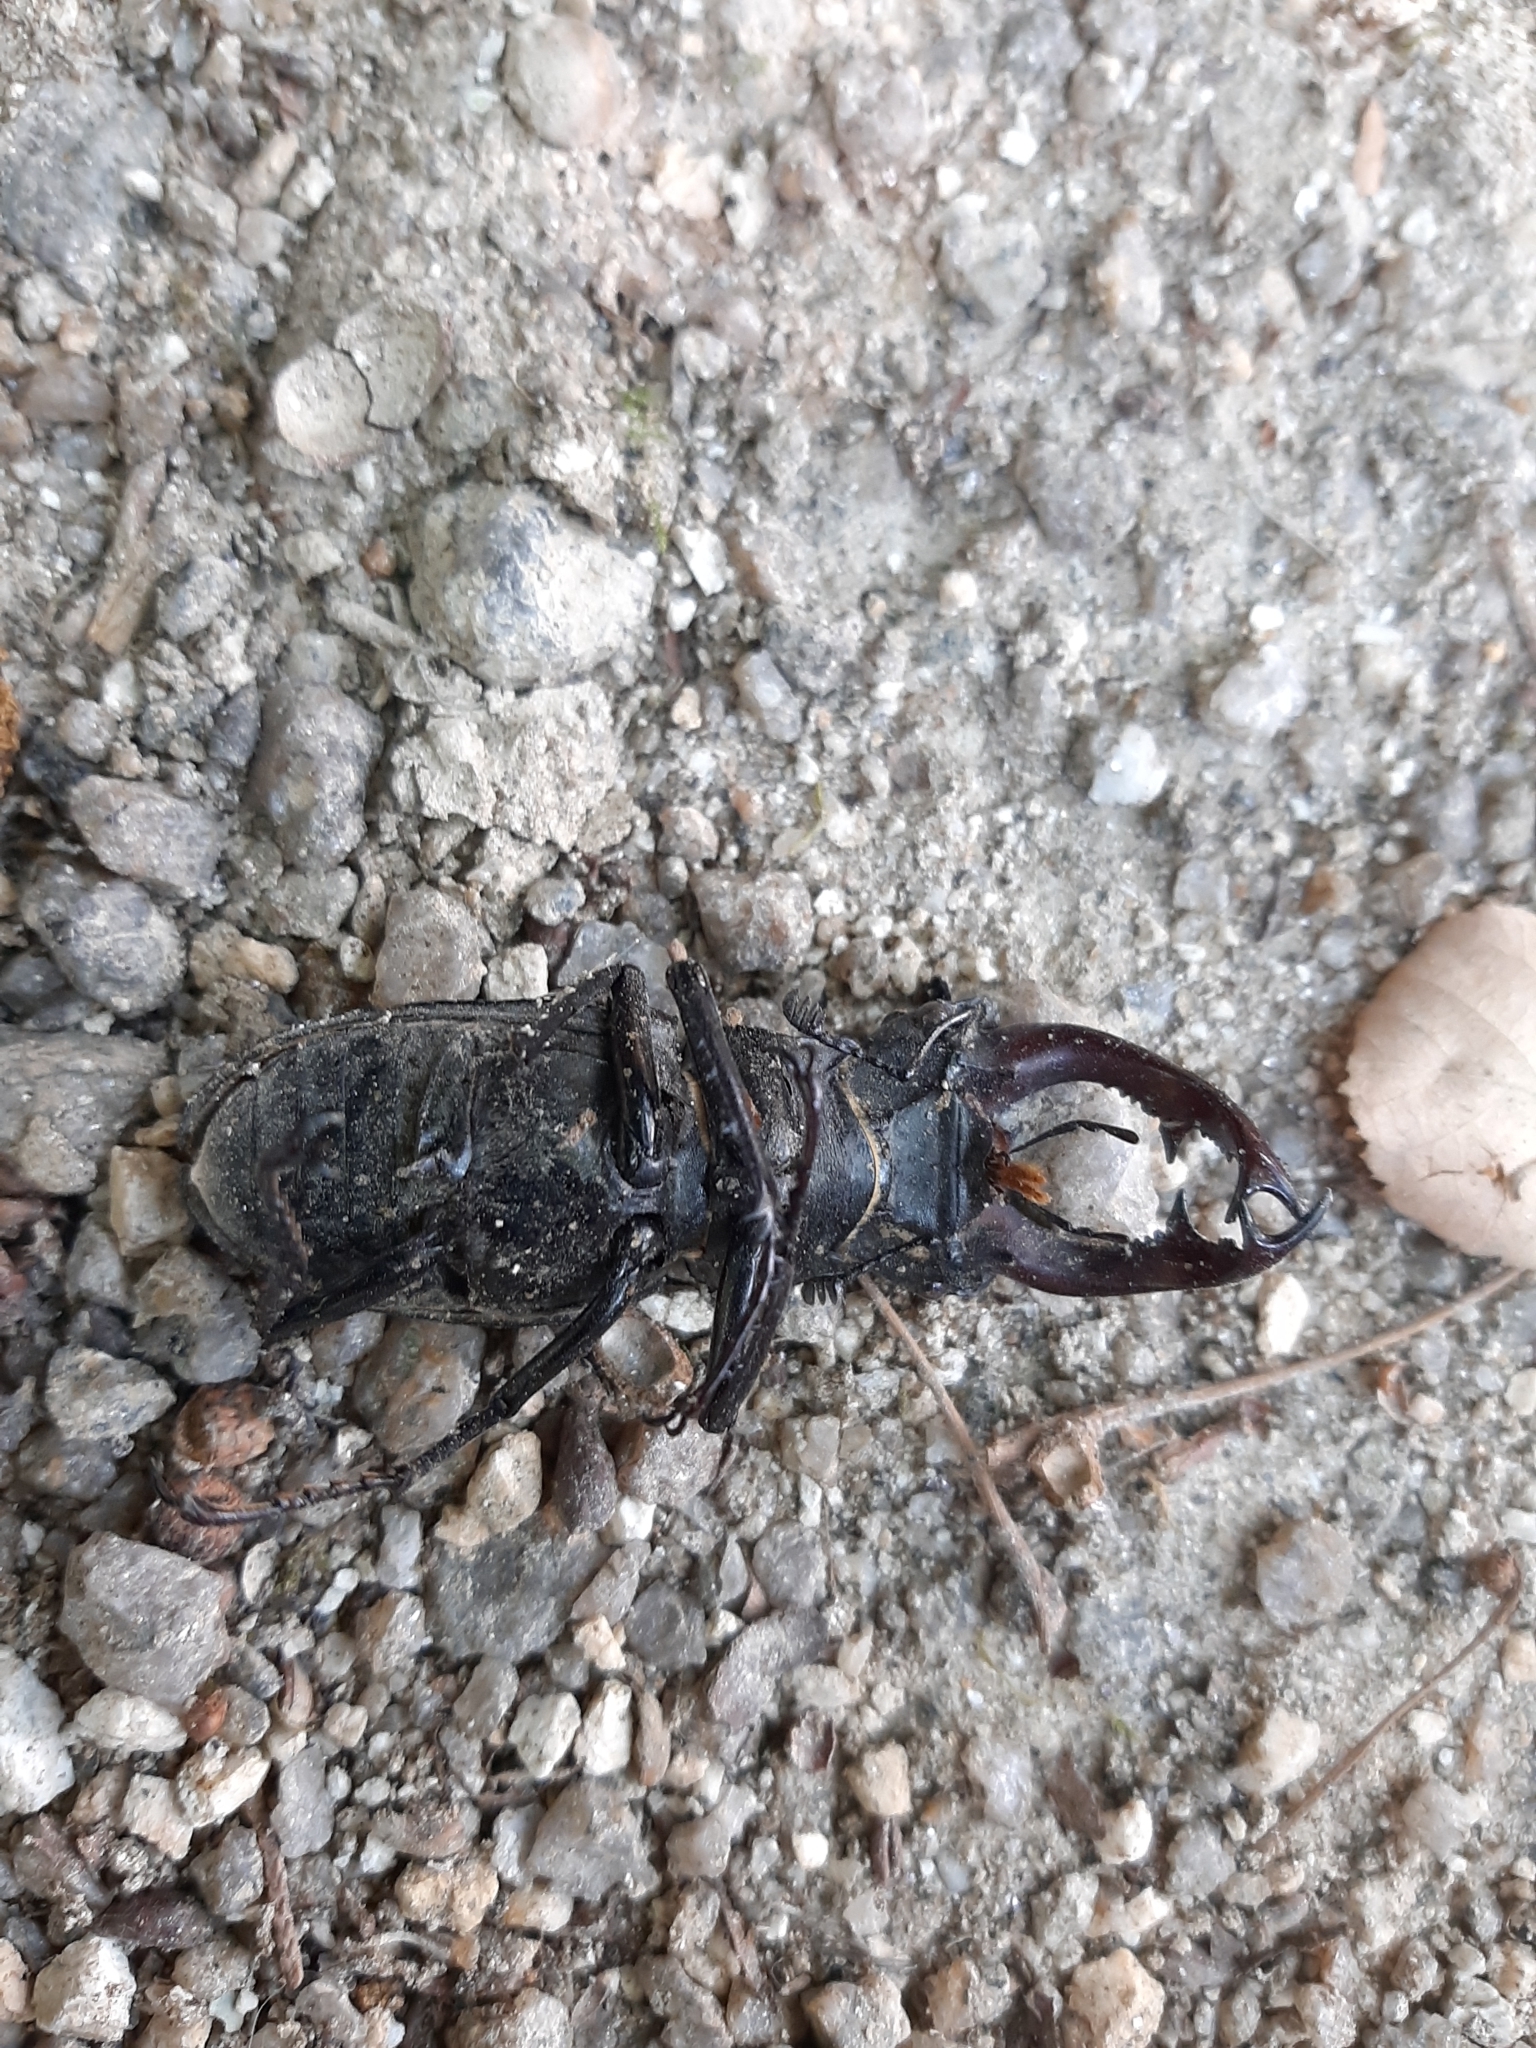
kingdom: Animalia
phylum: Arthropoda
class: Insecta
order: Coleoptera
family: Lucanidae
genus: Lucanus
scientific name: Lucanus cervus
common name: Stag beetle
